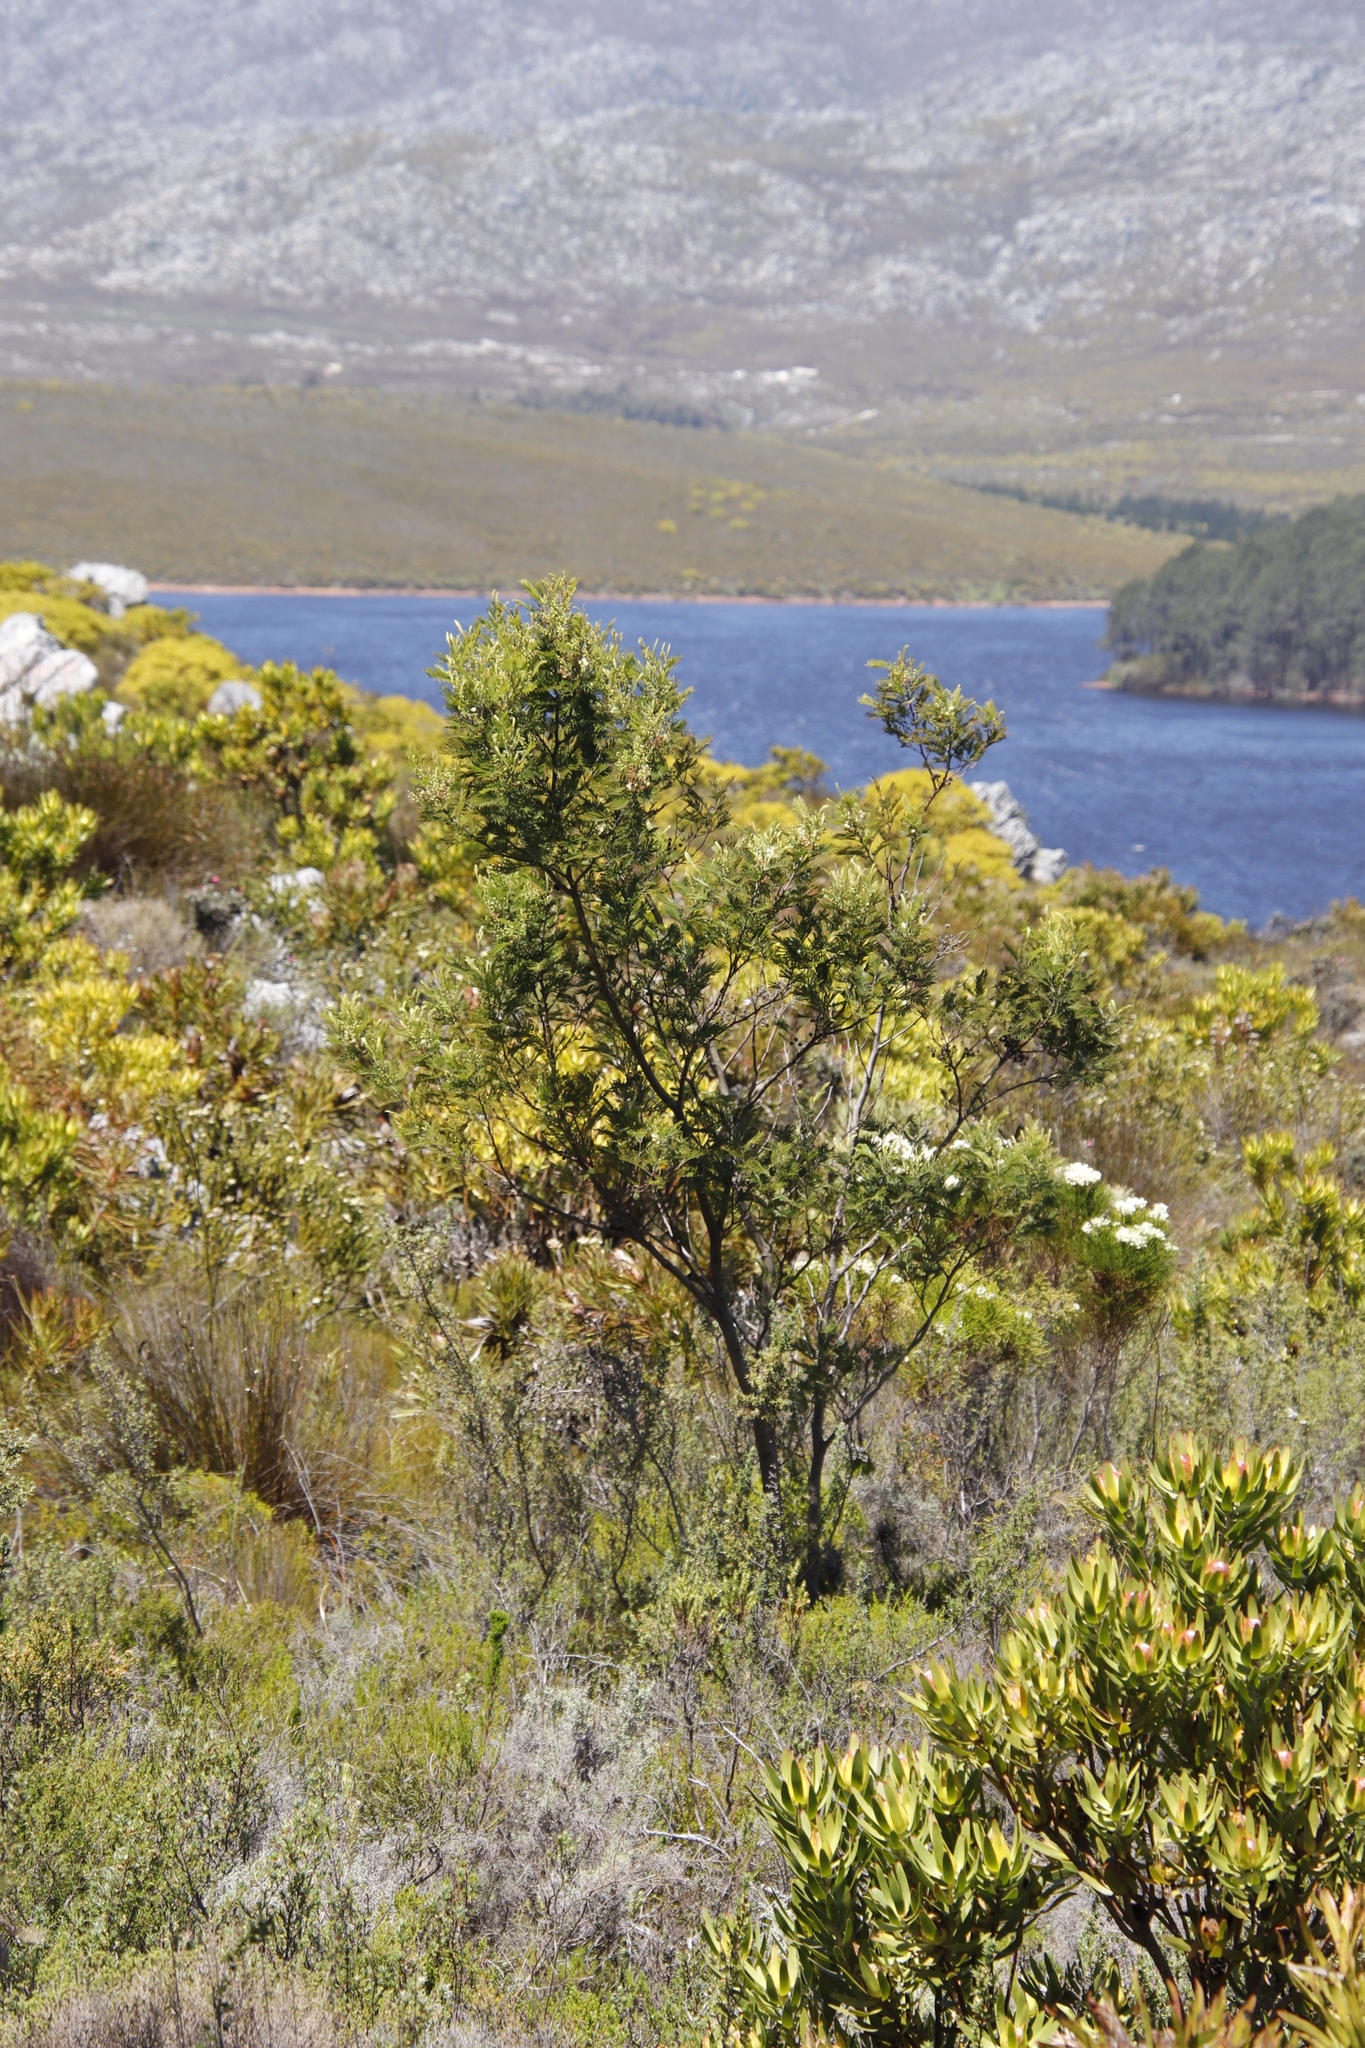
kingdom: Plantae
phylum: Tracheophyta
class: Magnoliopsida
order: Fabales
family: Fabaceae
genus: Acacia
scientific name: Acacia mearnsii
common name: Black wattle
